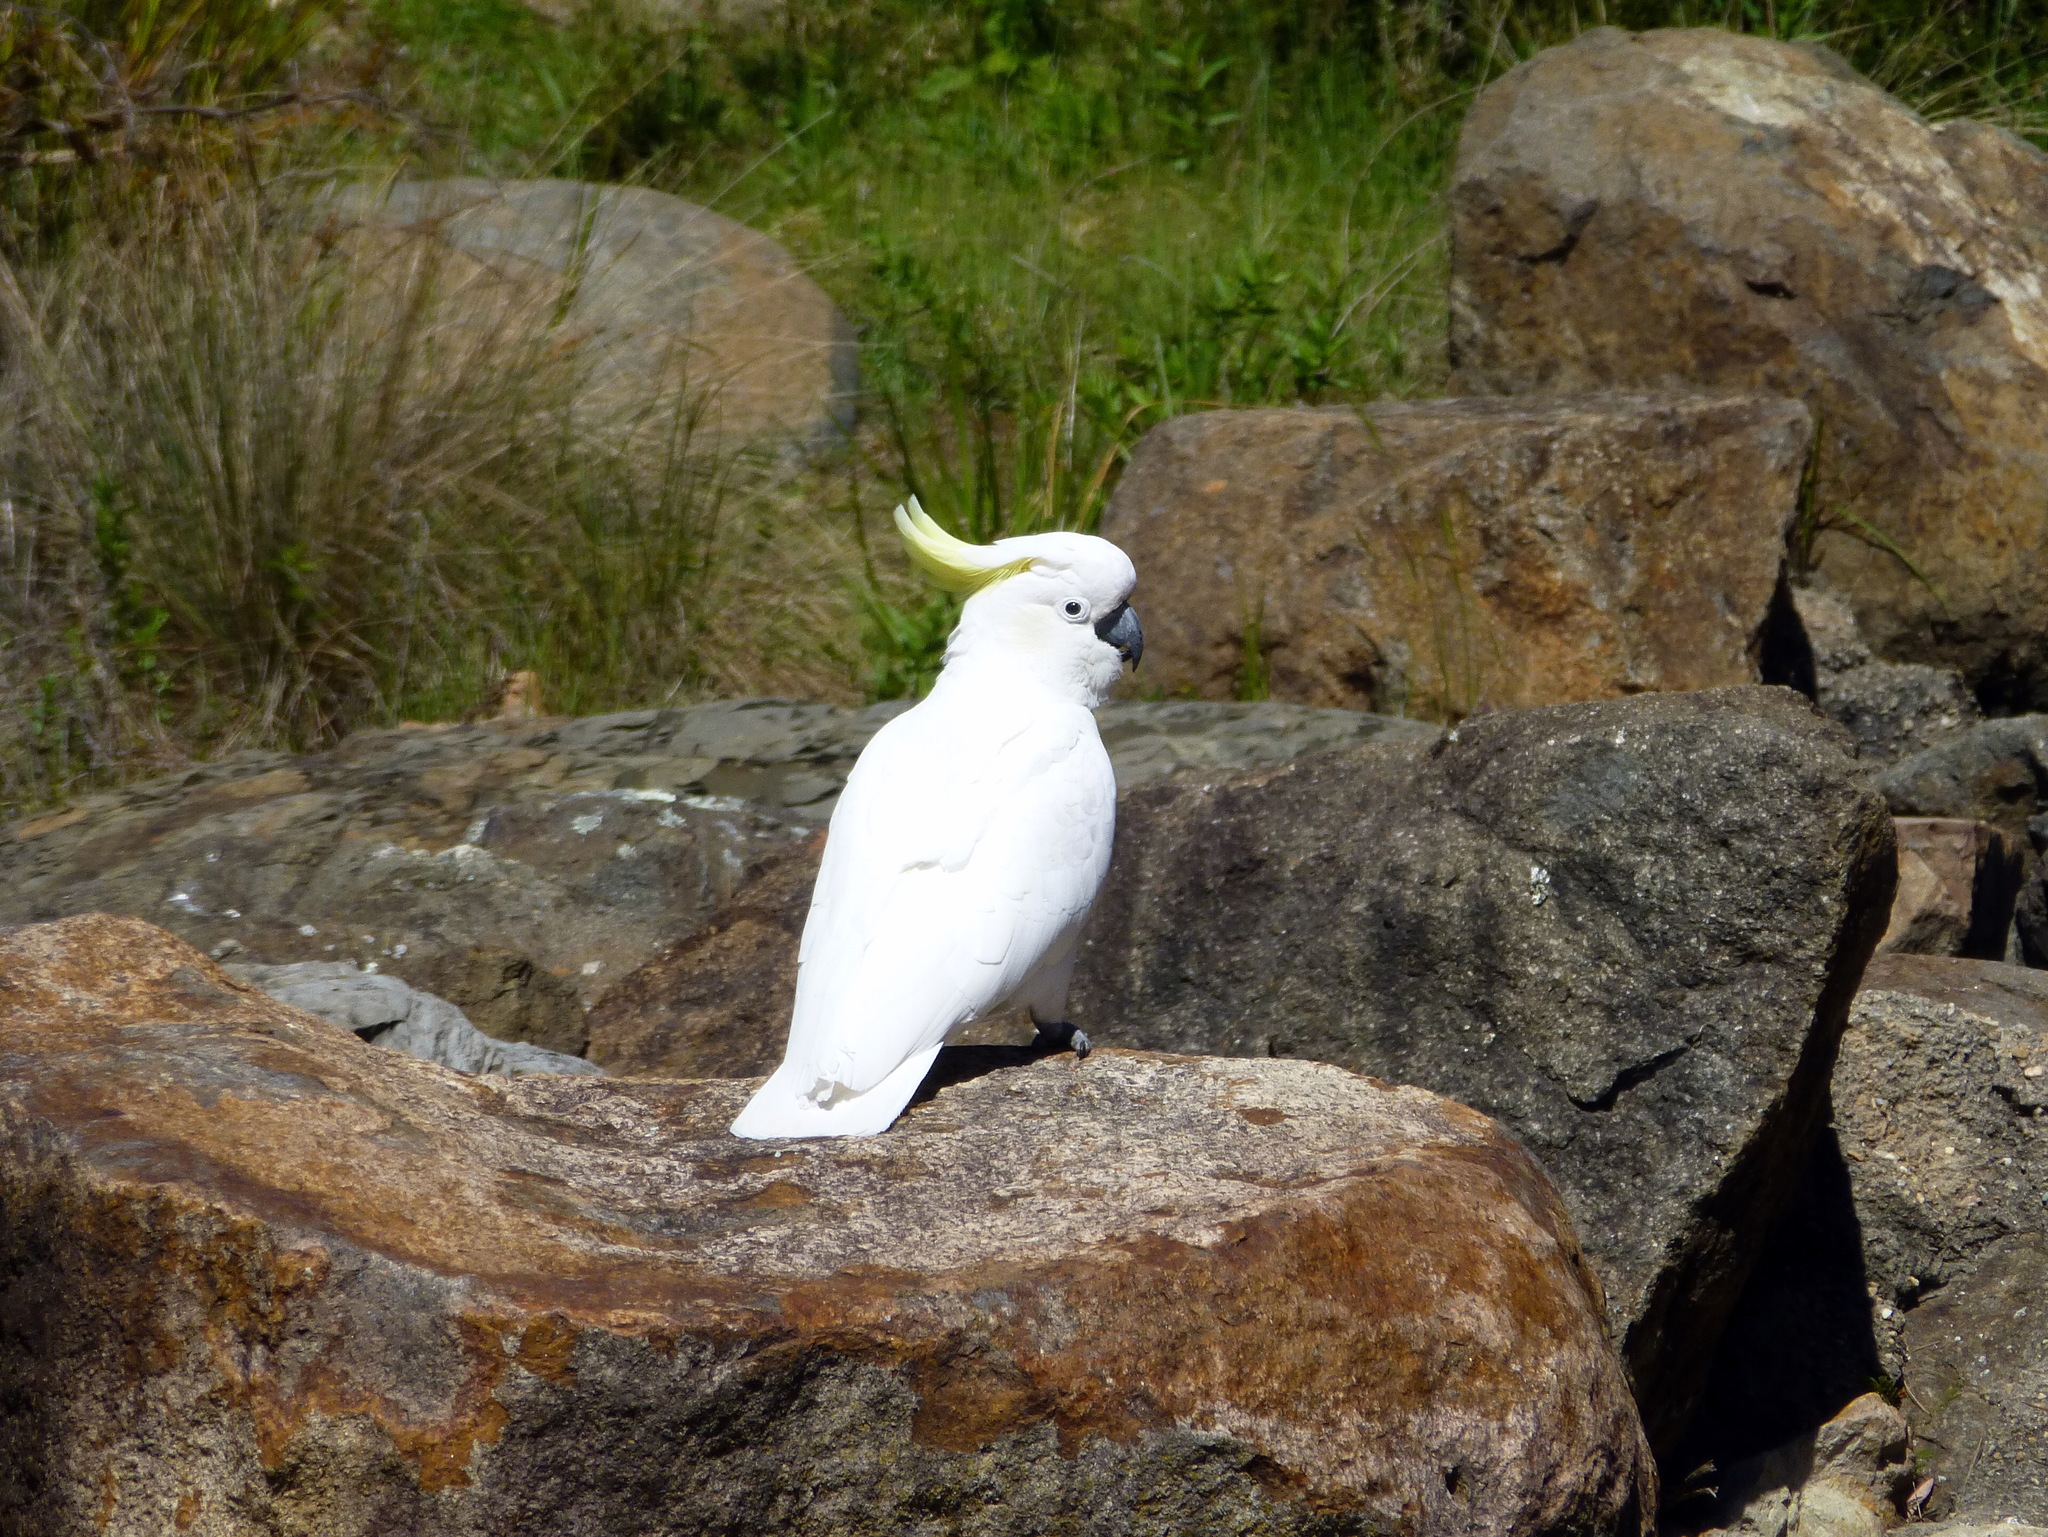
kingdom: Animalia
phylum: Chordata
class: Aves
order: Psittaciformes
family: Psittacidae
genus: Cacatua
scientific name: Cacatua galerita
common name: Sulphur-crested cockatoo
